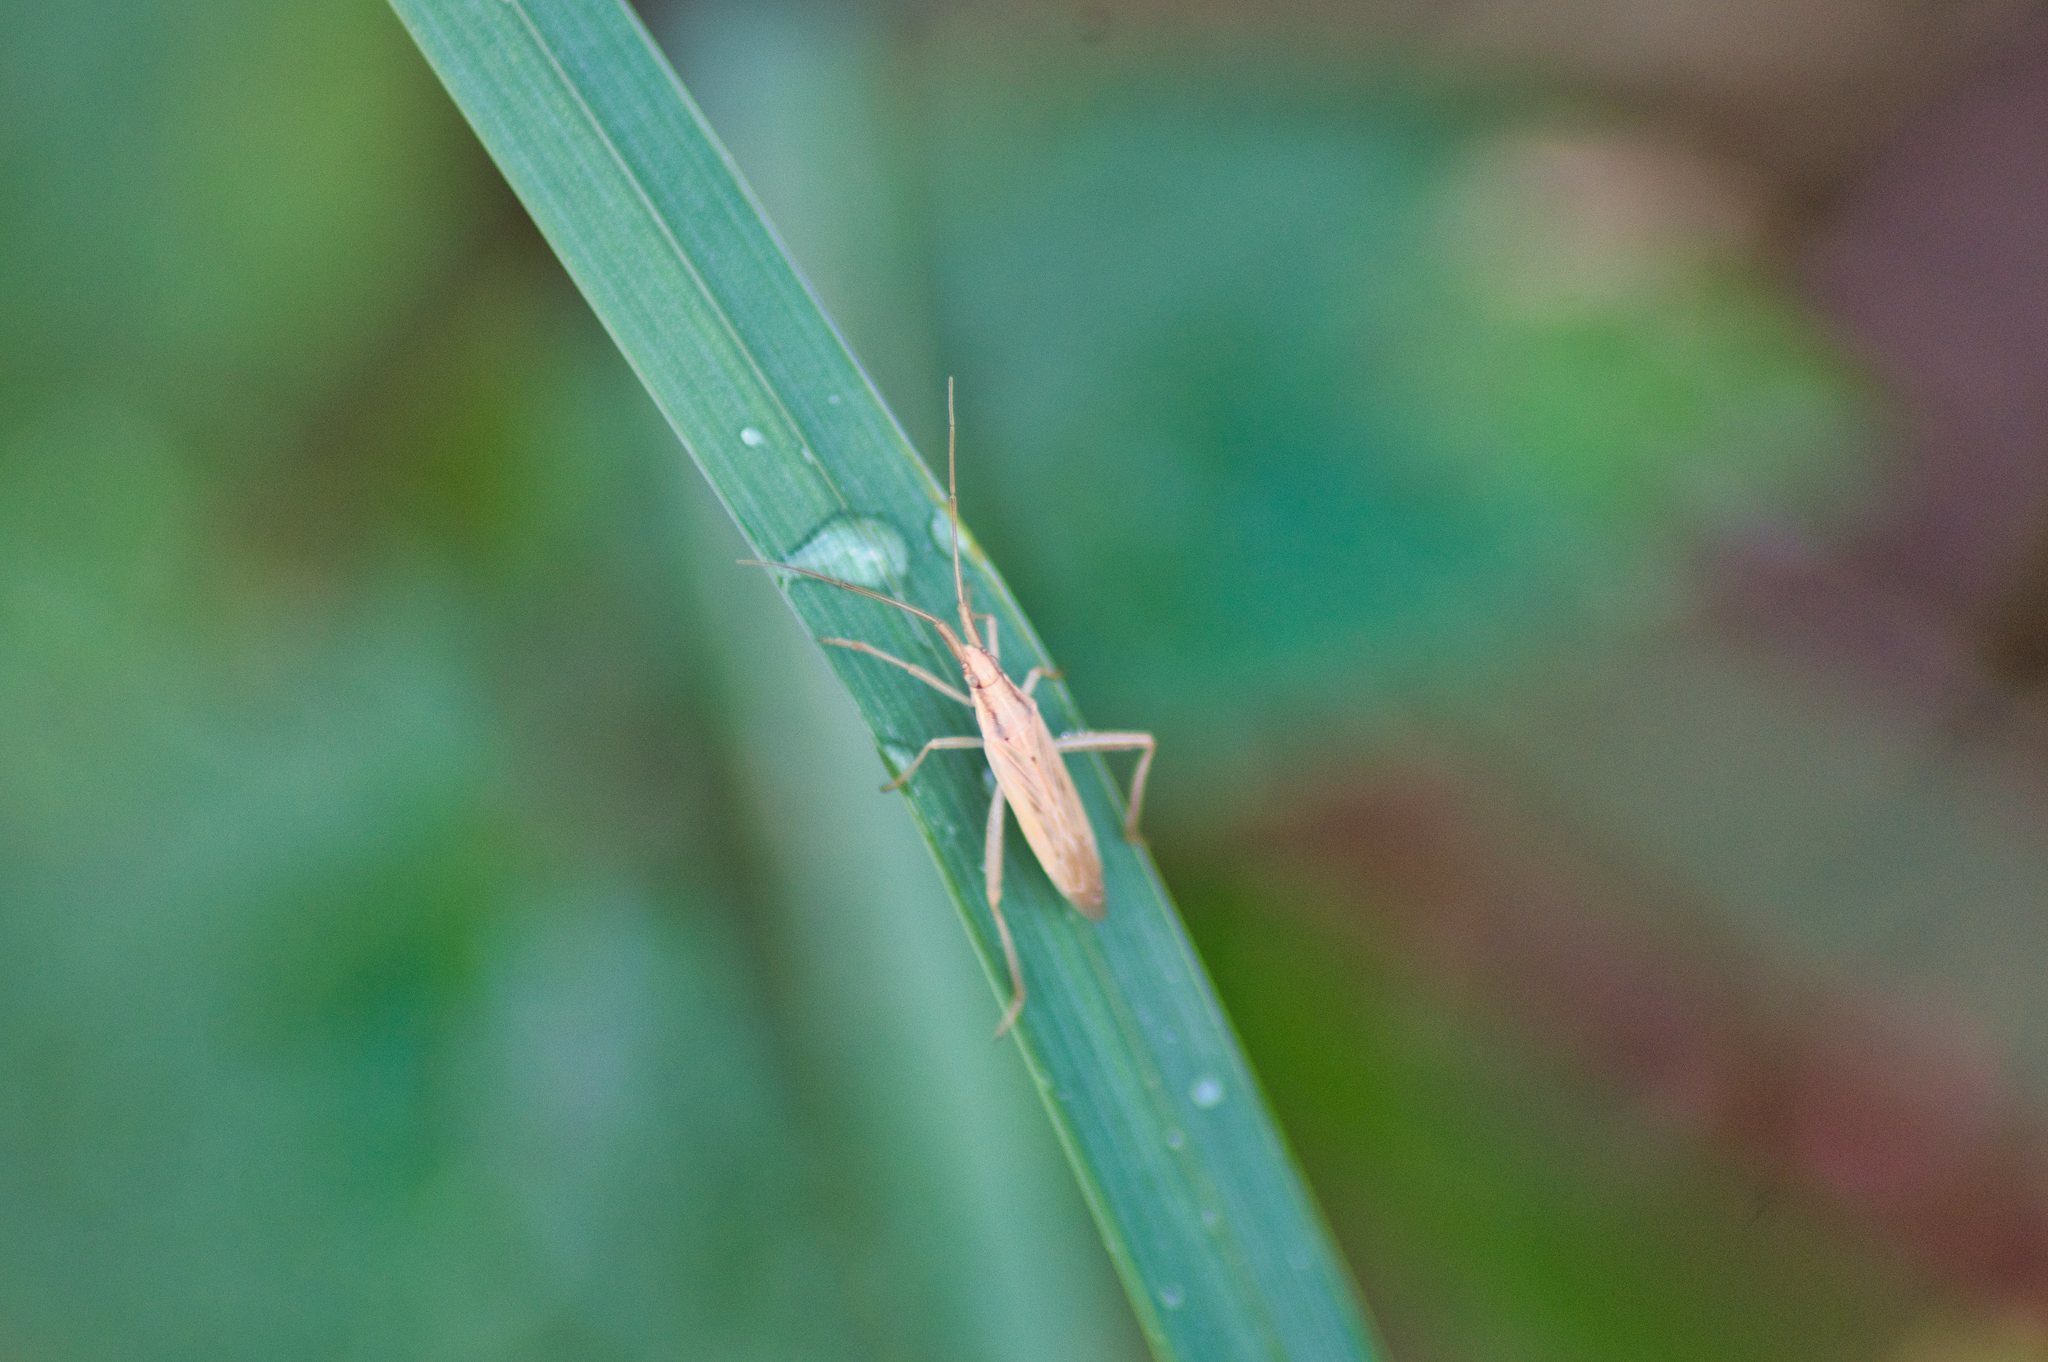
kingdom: Animalia
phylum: Arthropoda
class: Insecta
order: Hemiptera
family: Miridae
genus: Stenodema
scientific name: Stenodema laevigata
